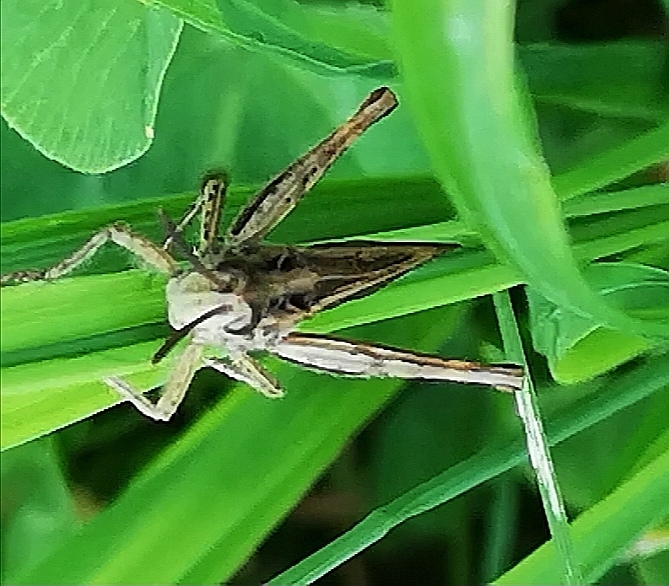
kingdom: Animalia
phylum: Arthropoda
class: Insecta
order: Orthoptera
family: Acrididae
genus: Chorthippus
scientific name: Chorthippus biguttulus
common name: Bow-winged grasshopper
